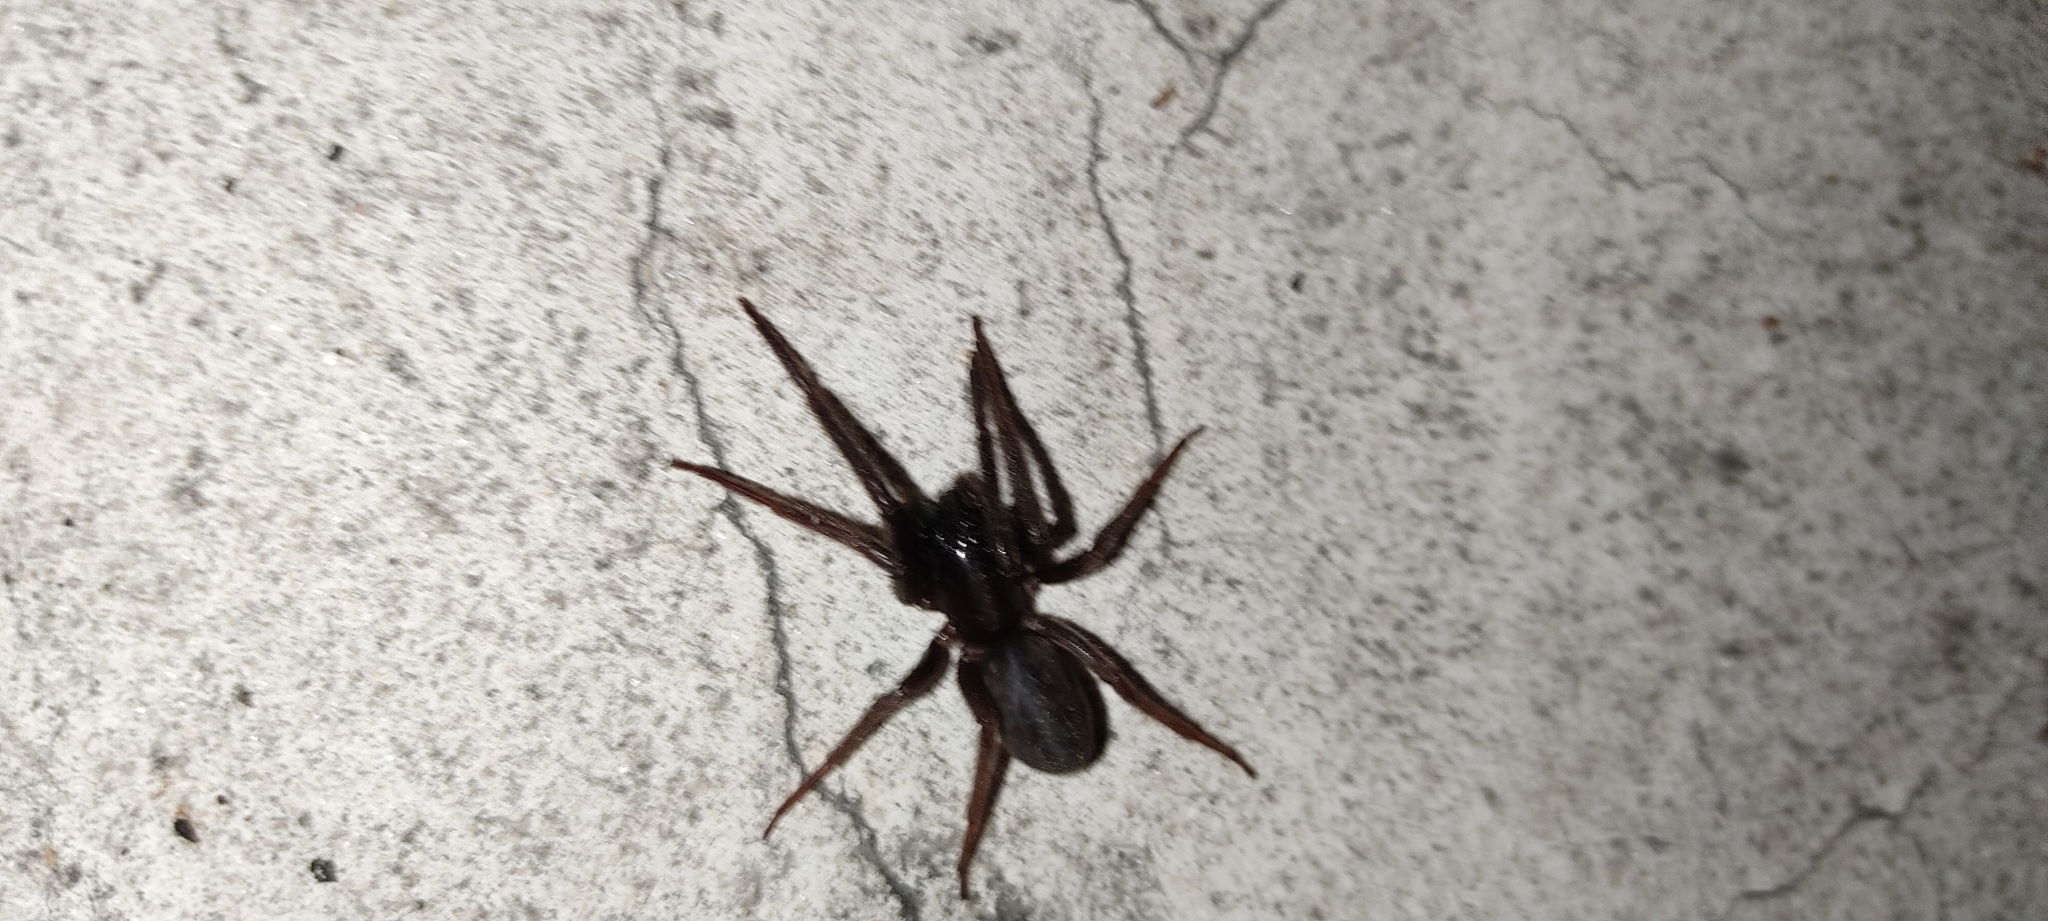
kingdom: Animalia
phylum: Arthropoda
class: Arachnida
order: Araneae
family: Segestriidae
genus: Segestria
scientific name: Segestria florentina
